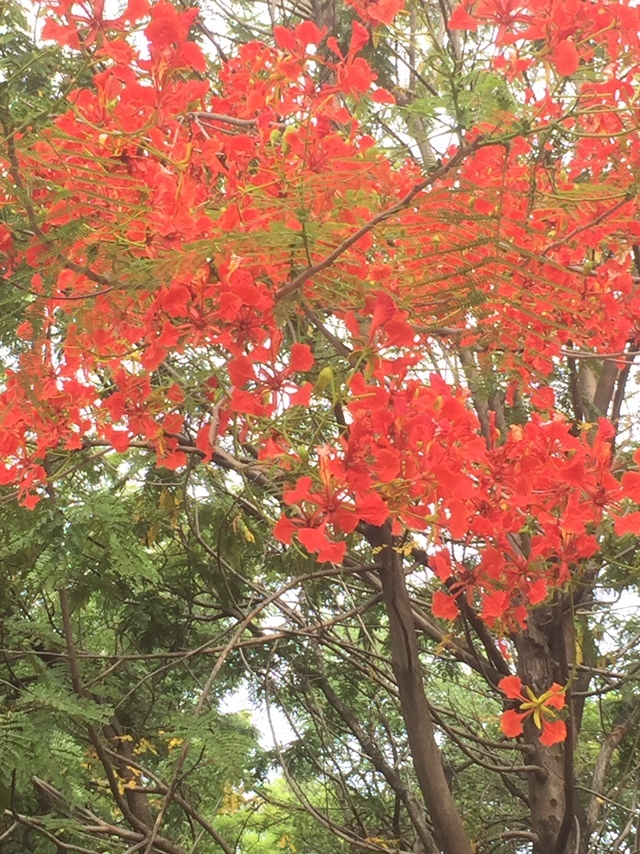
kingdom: Plantae
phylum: Tracheophyta
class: Magnoliopsida
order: Fabales
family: Fabaceae
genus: Delonix
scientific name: Delonix regia
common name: Royal poinciana
